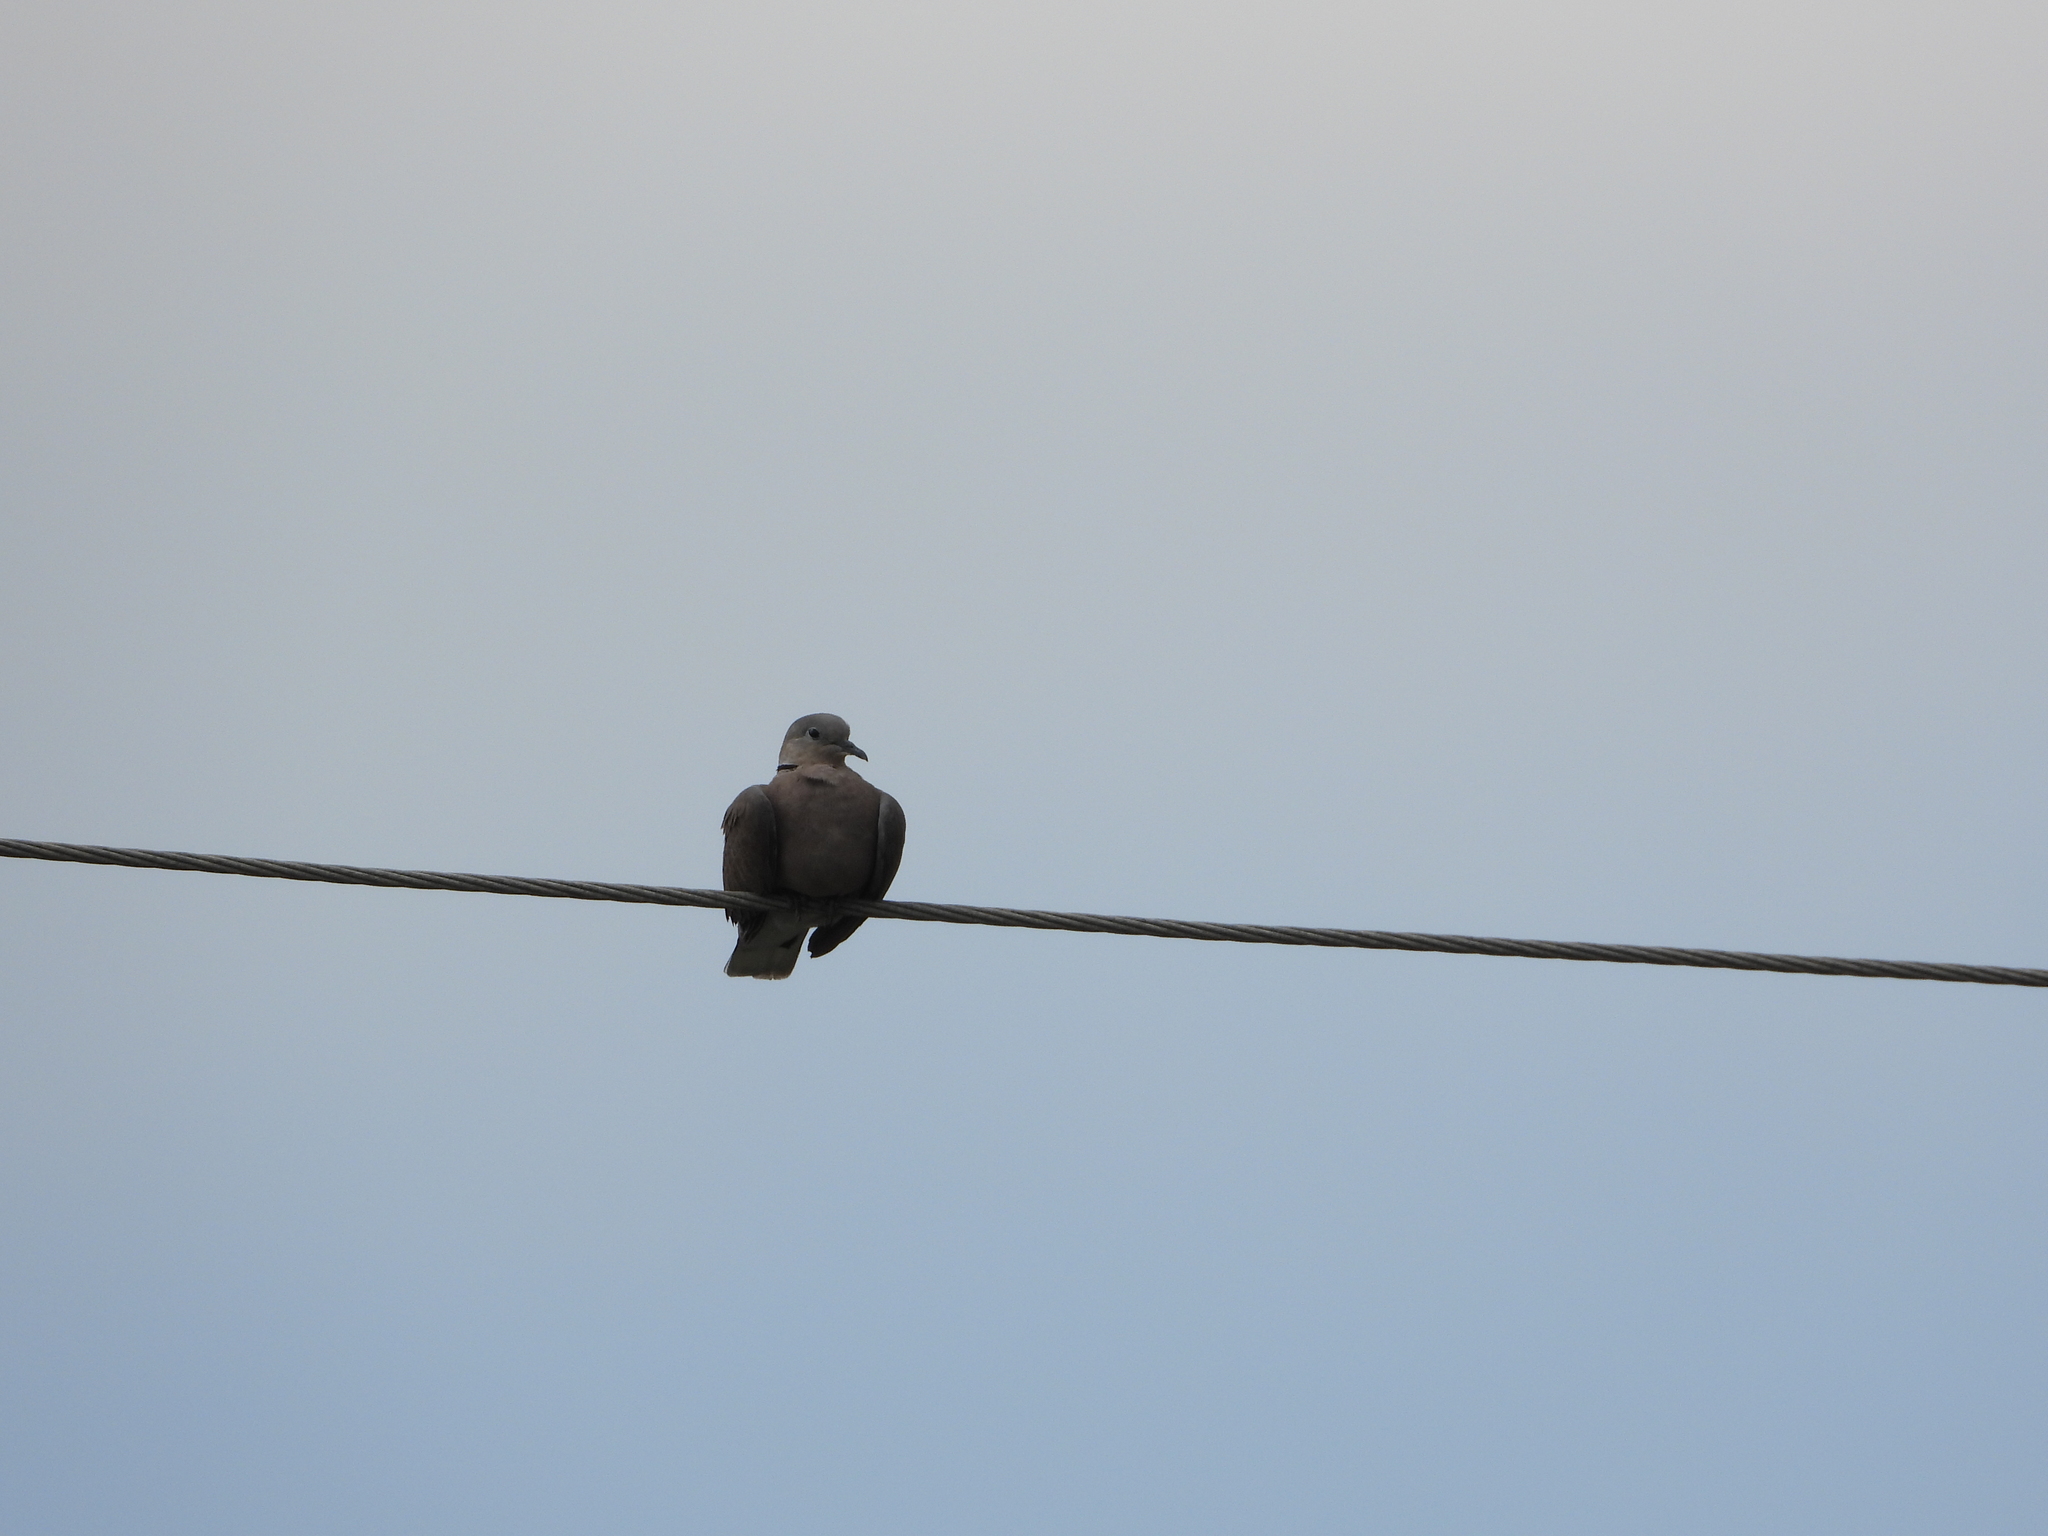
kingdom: Animalia
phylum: Chordata
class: Aves
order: Columbiformes
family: Columbidae
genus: Streptopelia
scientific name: Streptopelia tranquebarica
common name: Red turtle dove
